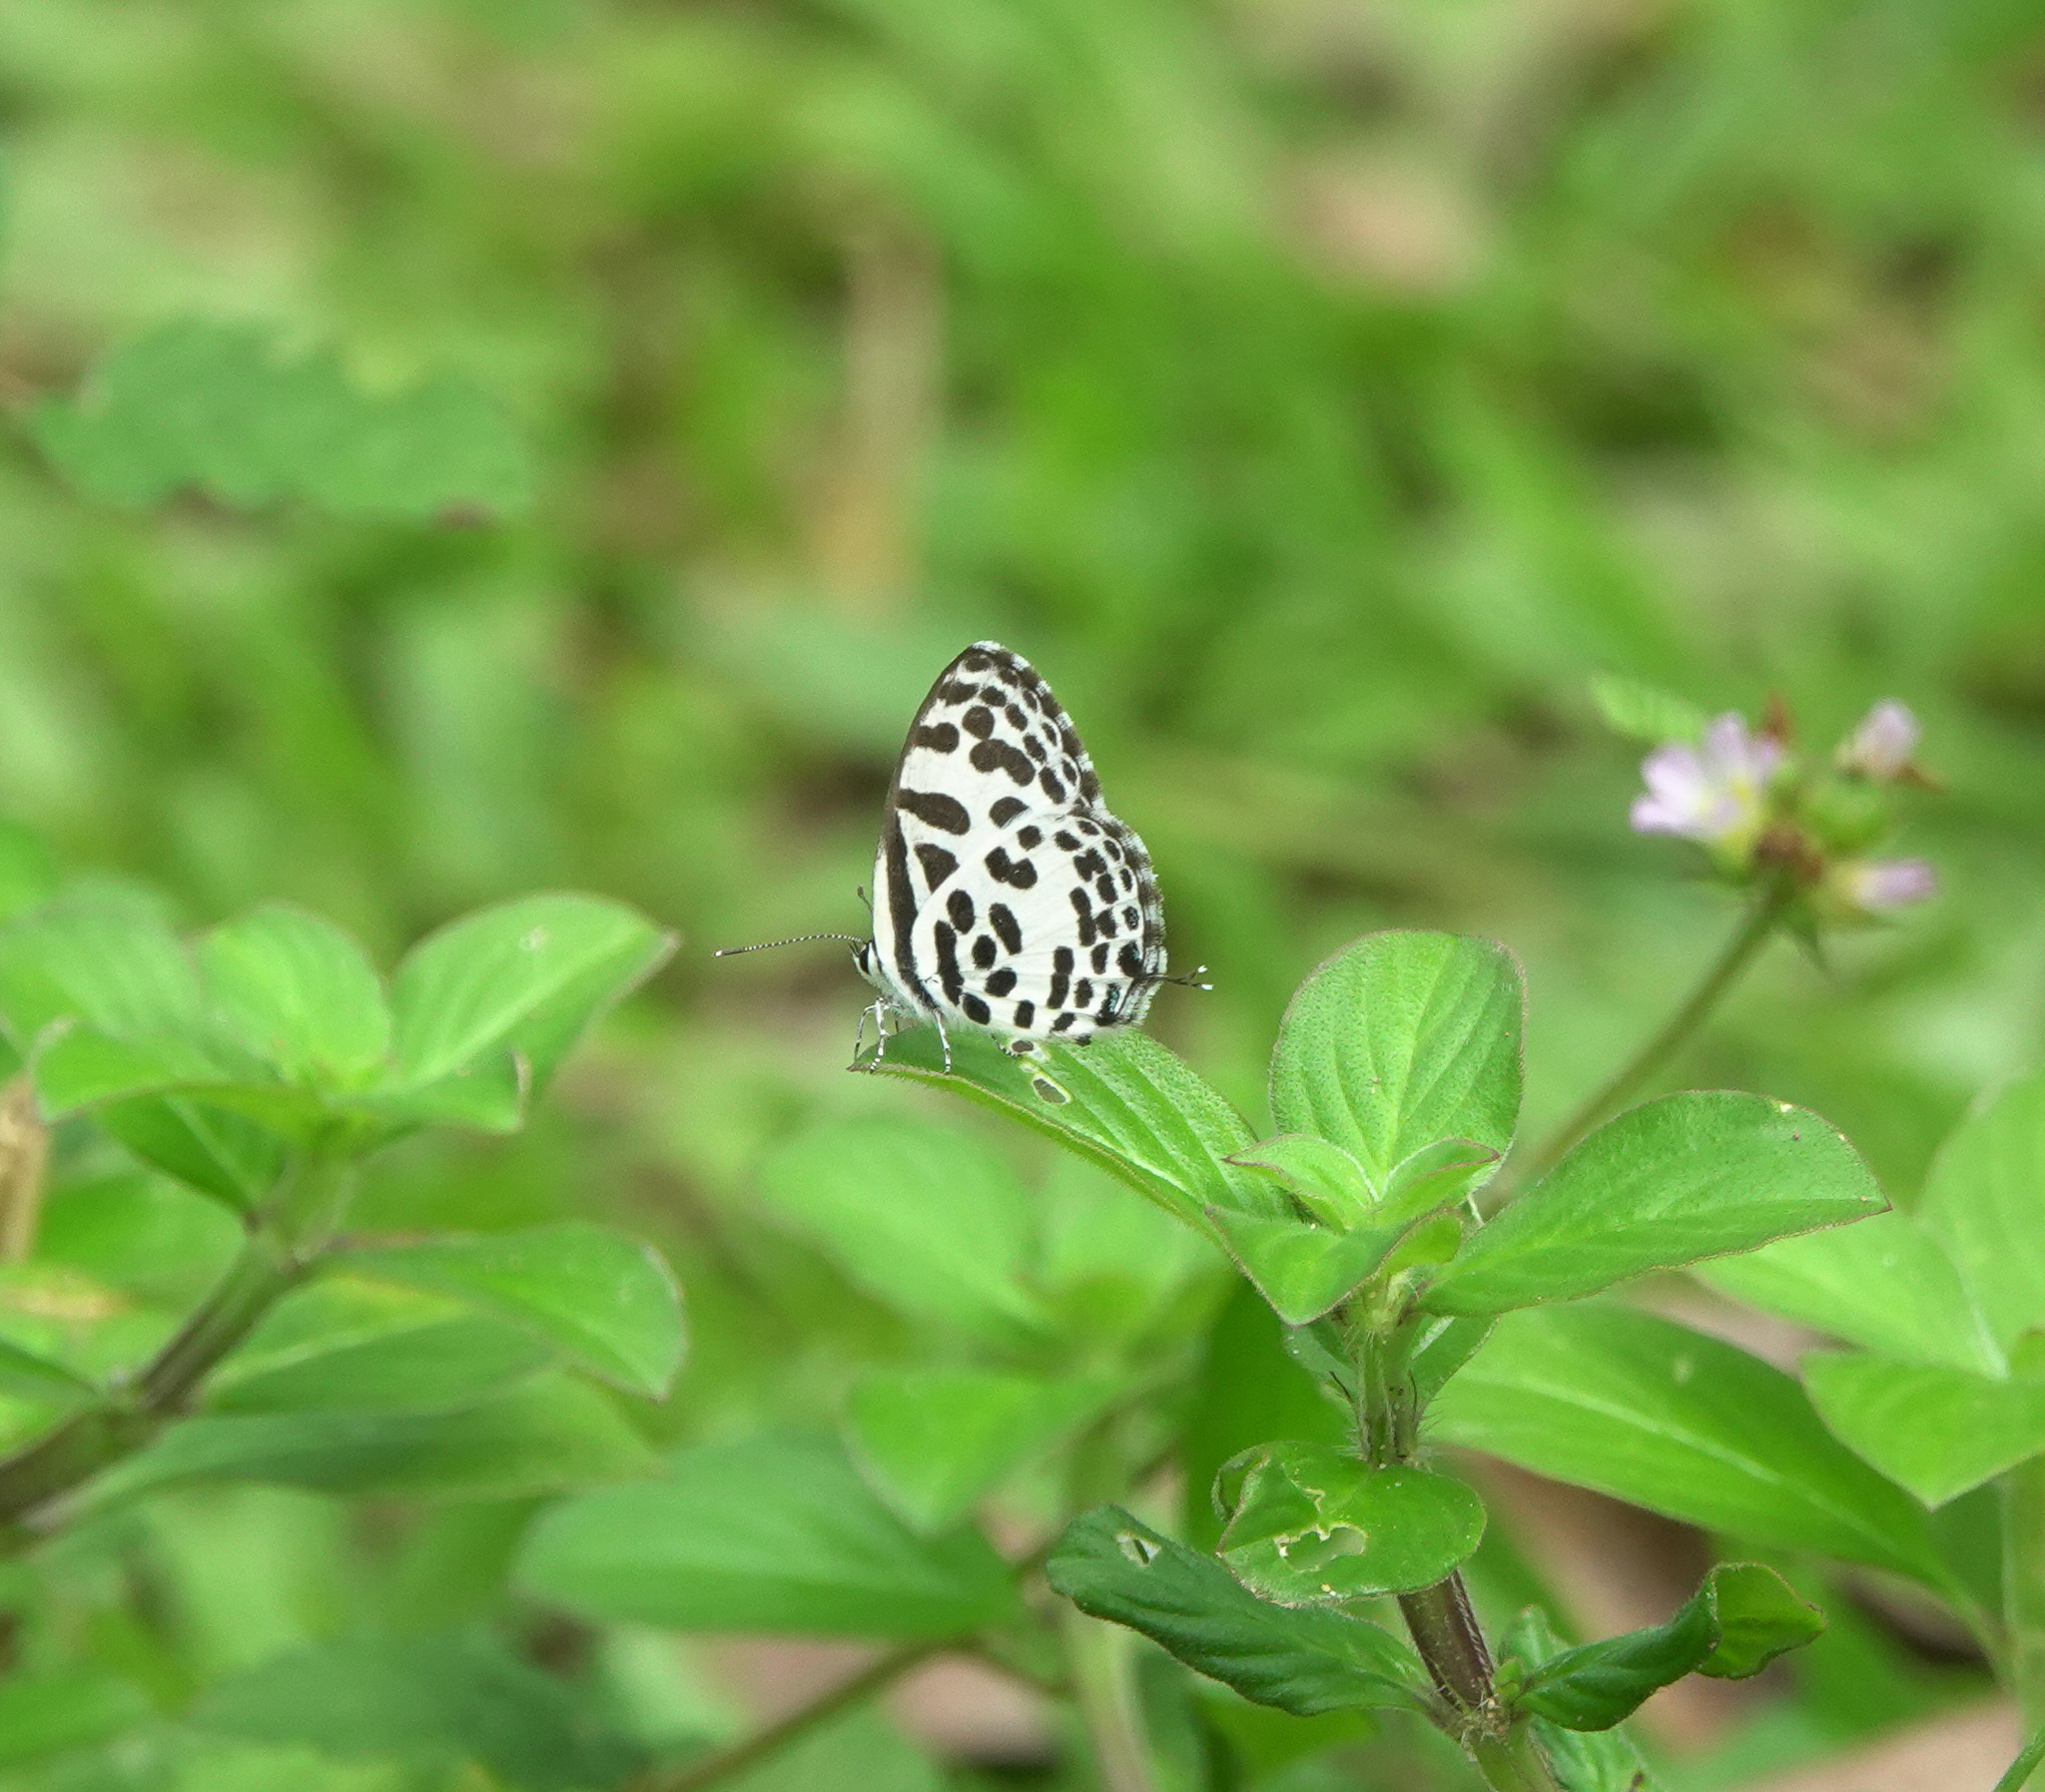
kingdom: Animalia
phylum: Arthropoda
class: Insecta
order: Lepidoptera
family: Lycaenidae
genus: Castalius
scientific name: Castalius rosimon
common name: Common pierrot
